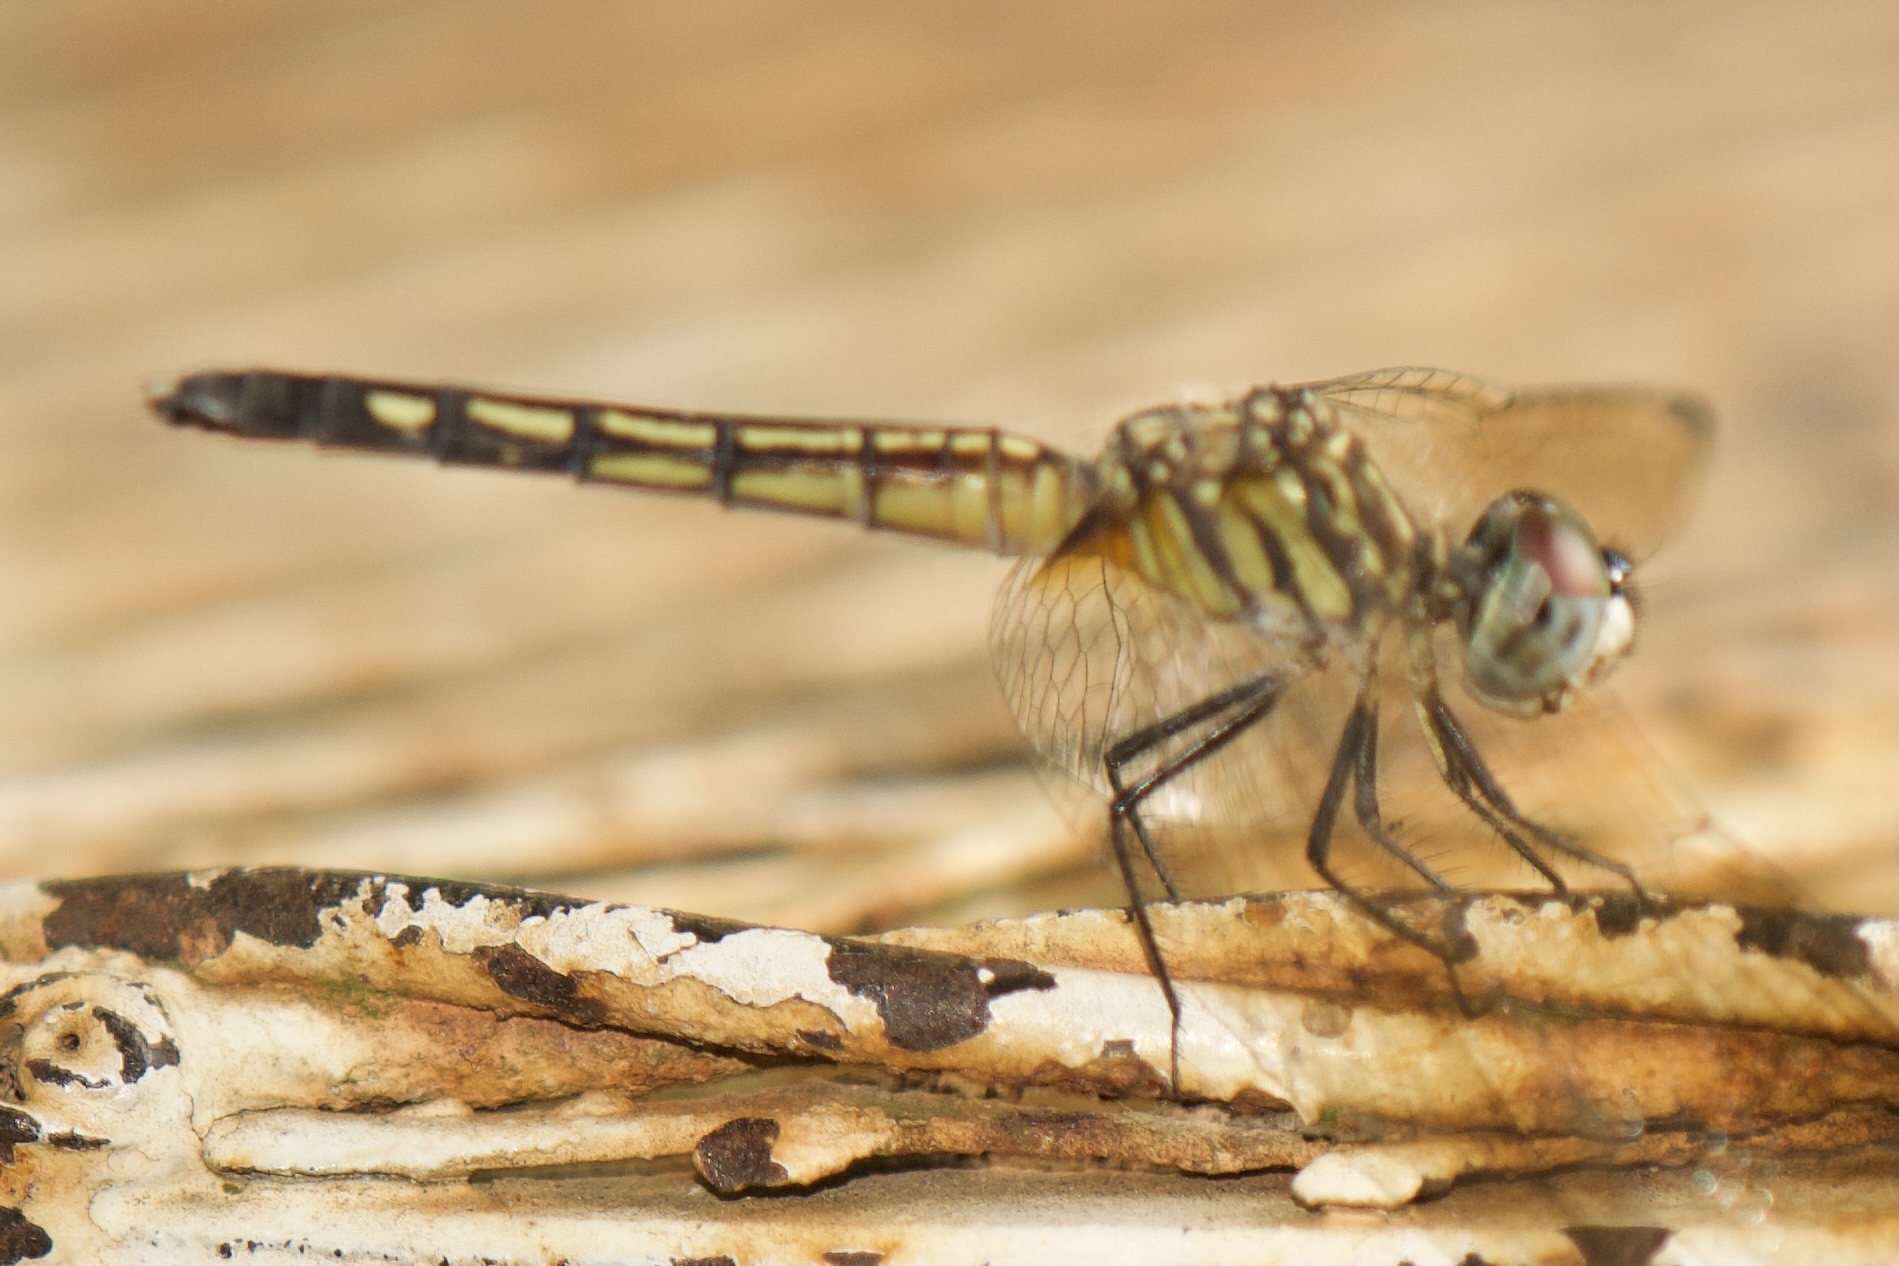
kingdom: Animalia
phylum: Arthropoda
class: Insecta
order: Odonata
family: Libellulidae
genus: Pachydiplax
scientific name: Pachydiplax longipennis
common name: Blue dasher
